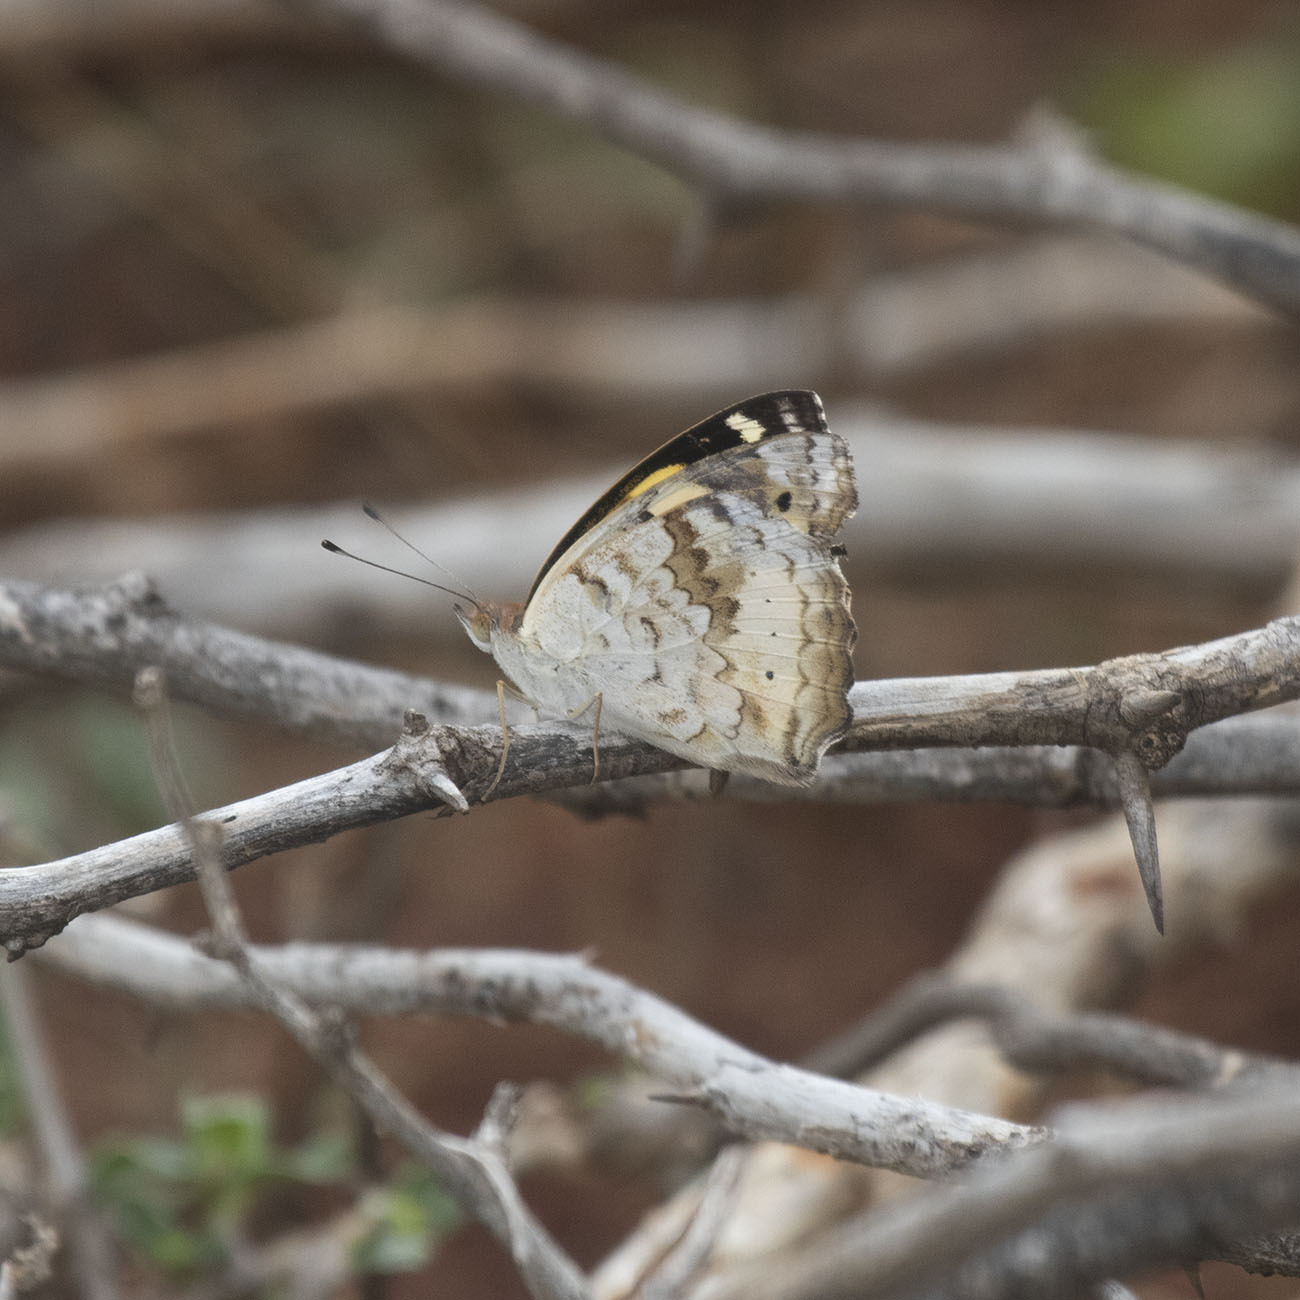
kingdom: Animalia
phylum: Arthropoda
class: Insecta
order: Lepidoptera
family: Nymphalidae
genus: Junonia
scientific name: Junonia hierta
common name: Yellow pansy
